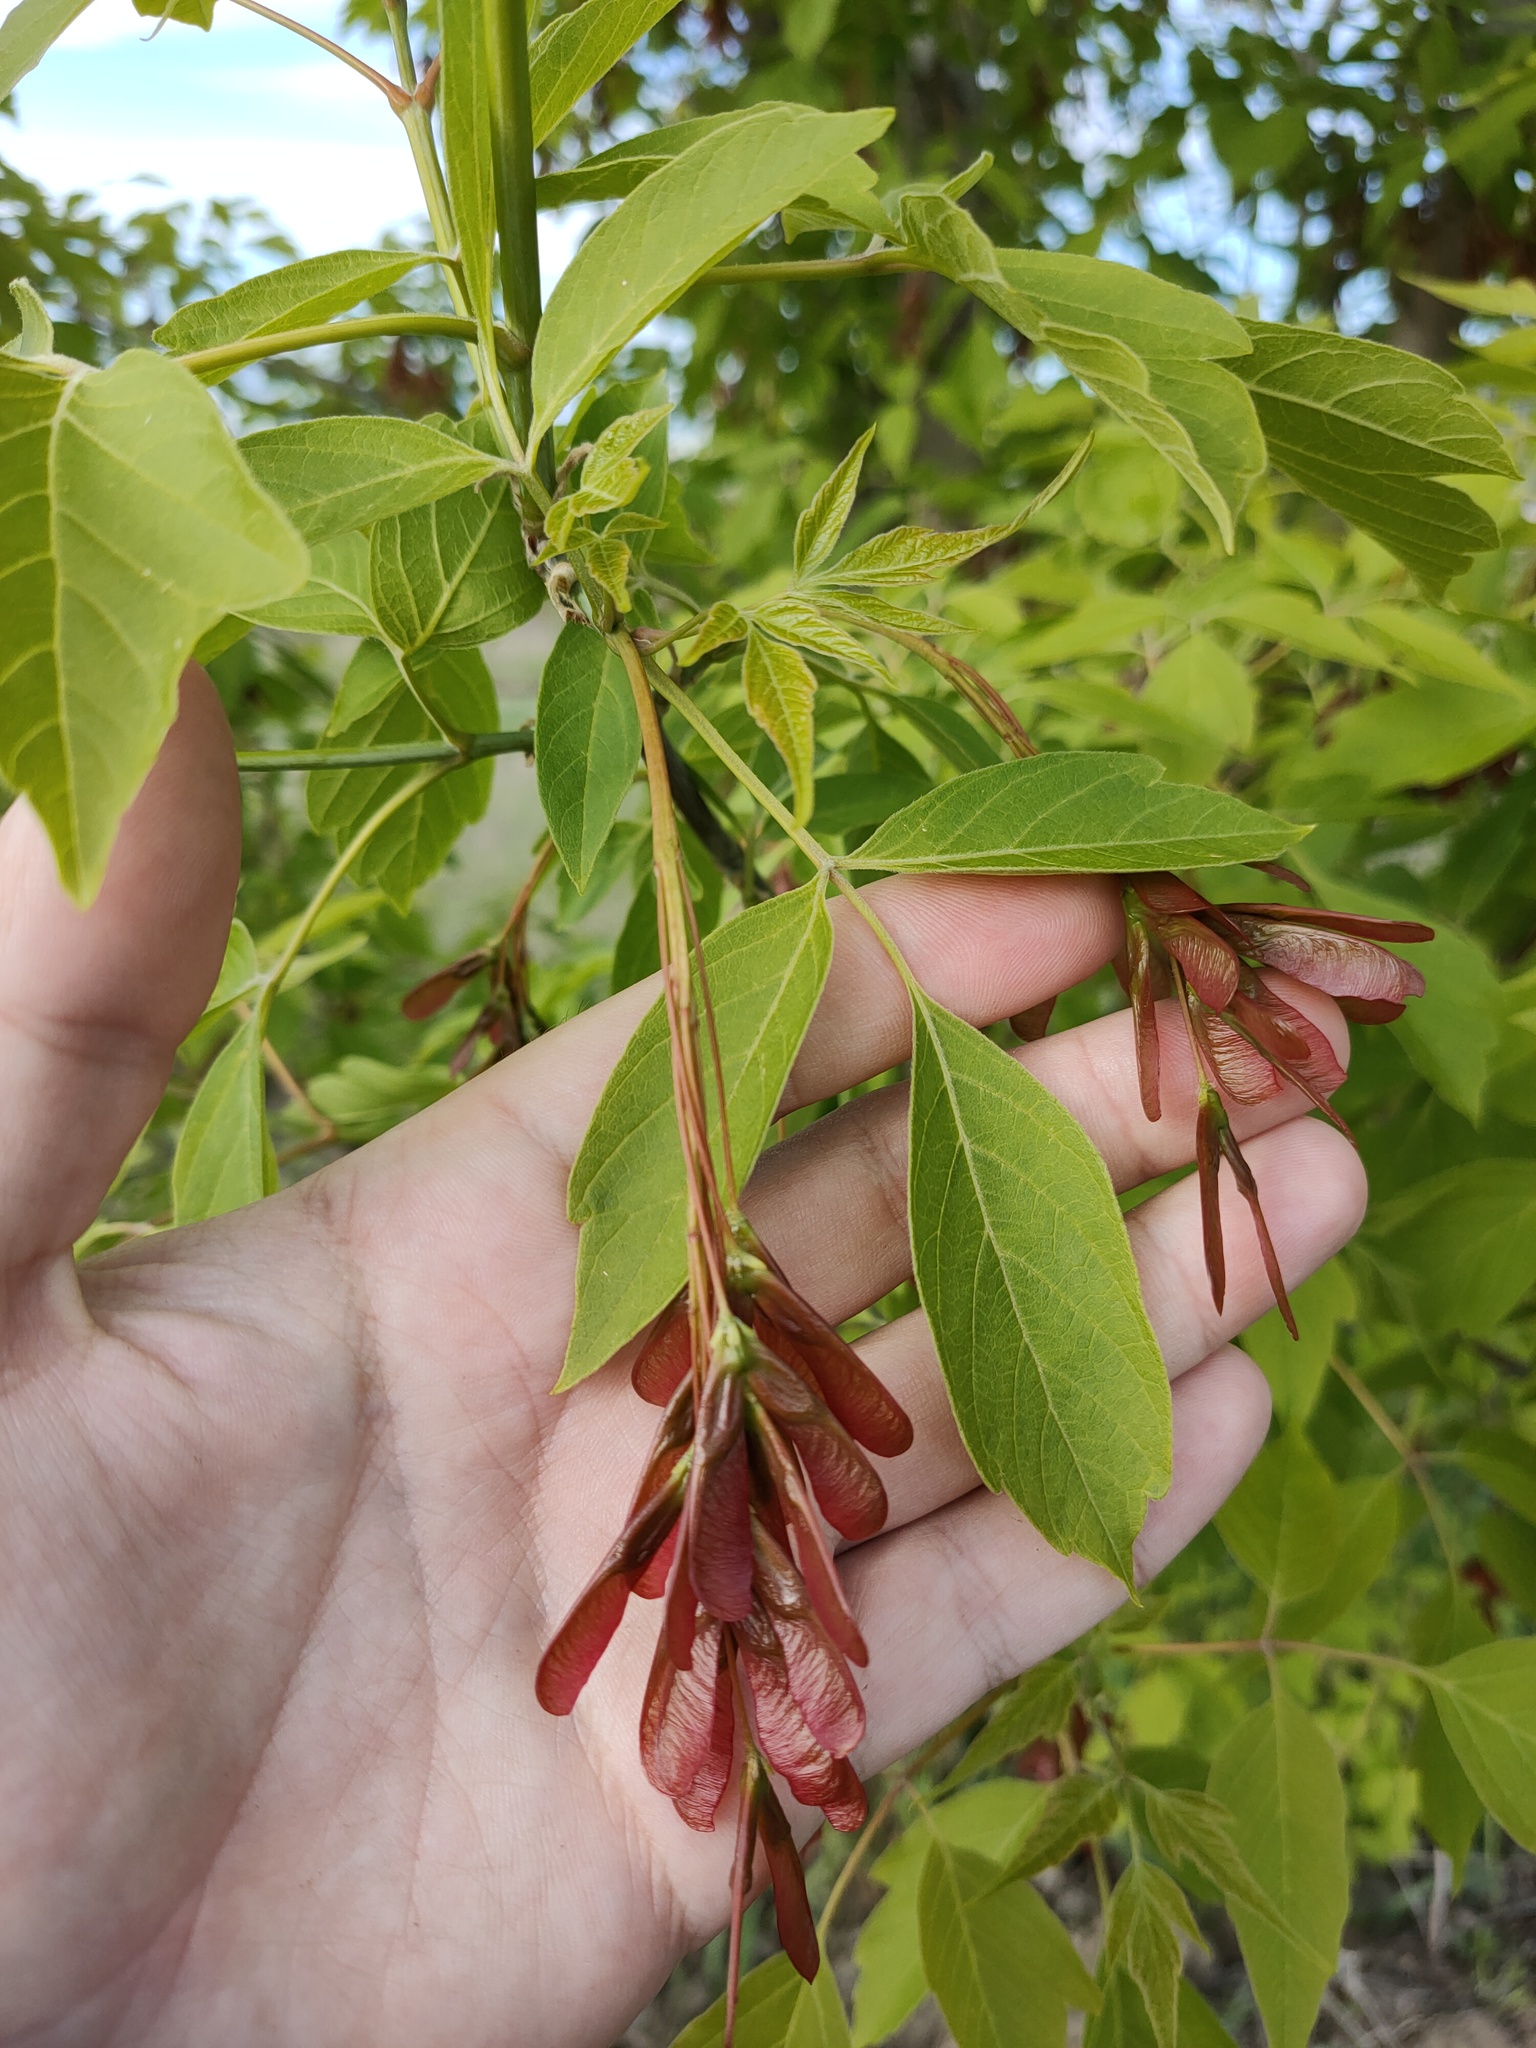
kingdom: Plantae
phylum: Tracheophyta
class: Magnoliopsida
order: Sapindales
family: Sapindaceae
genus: Acer
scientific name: Acer negundo
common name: Ashleaf maple
